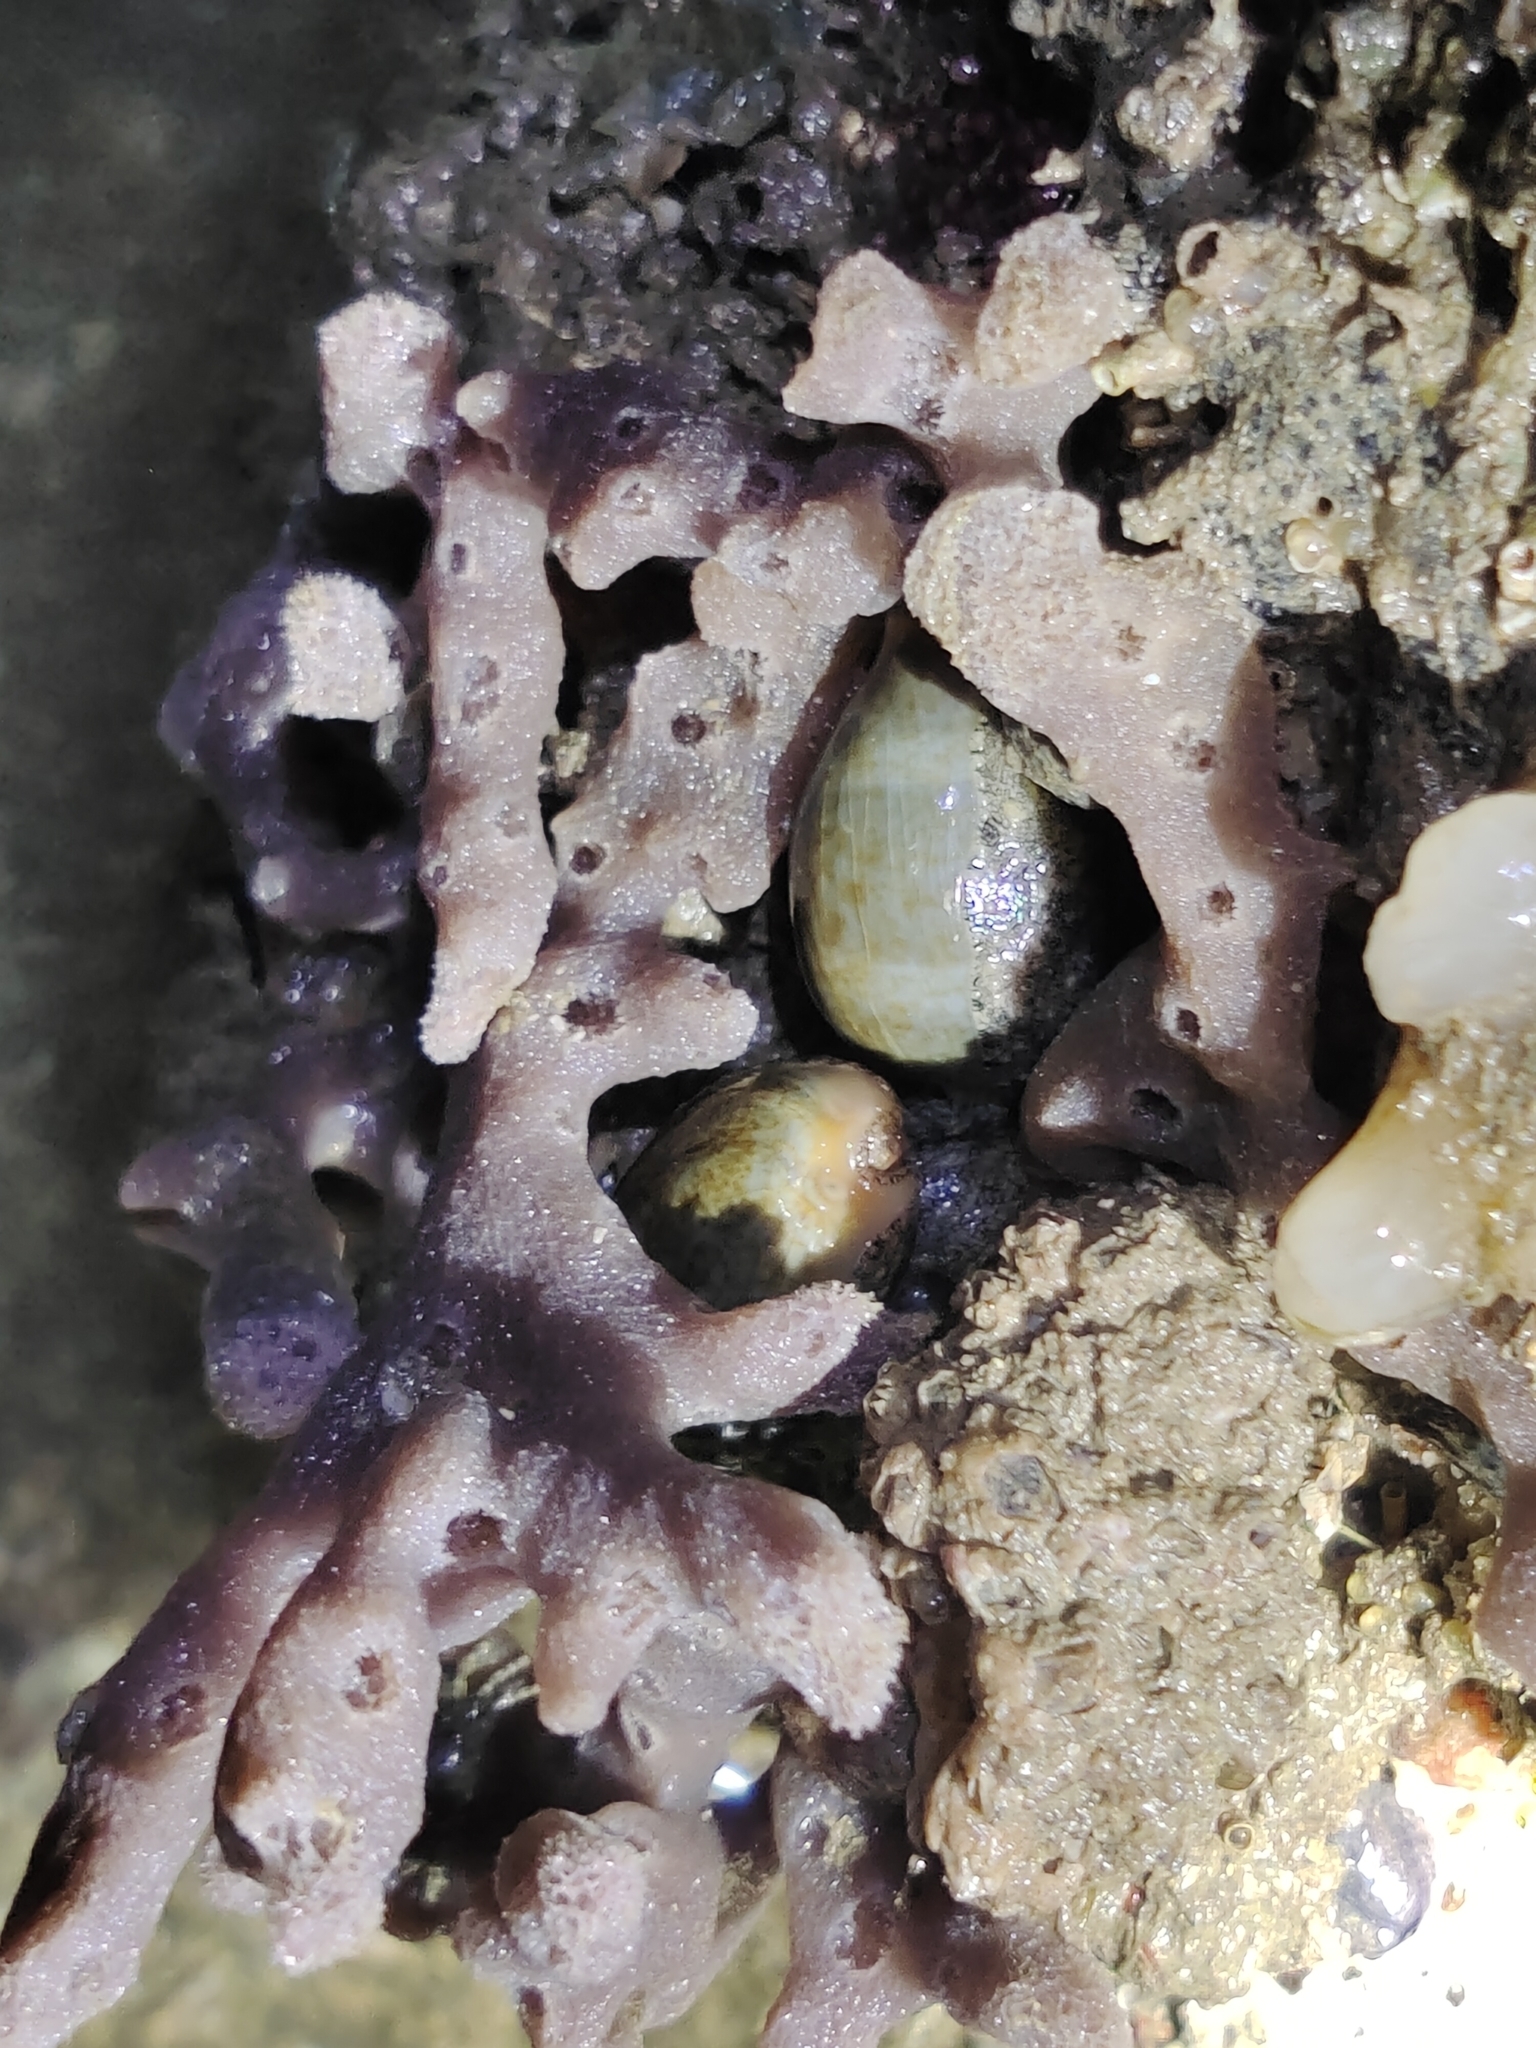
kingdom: Animalia
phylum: Mollusca
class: Gastropoda
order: Littorinimorpha
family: Cypraeidae
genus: Erronea
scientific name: Erronea errones
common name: Mistaken cowrie
